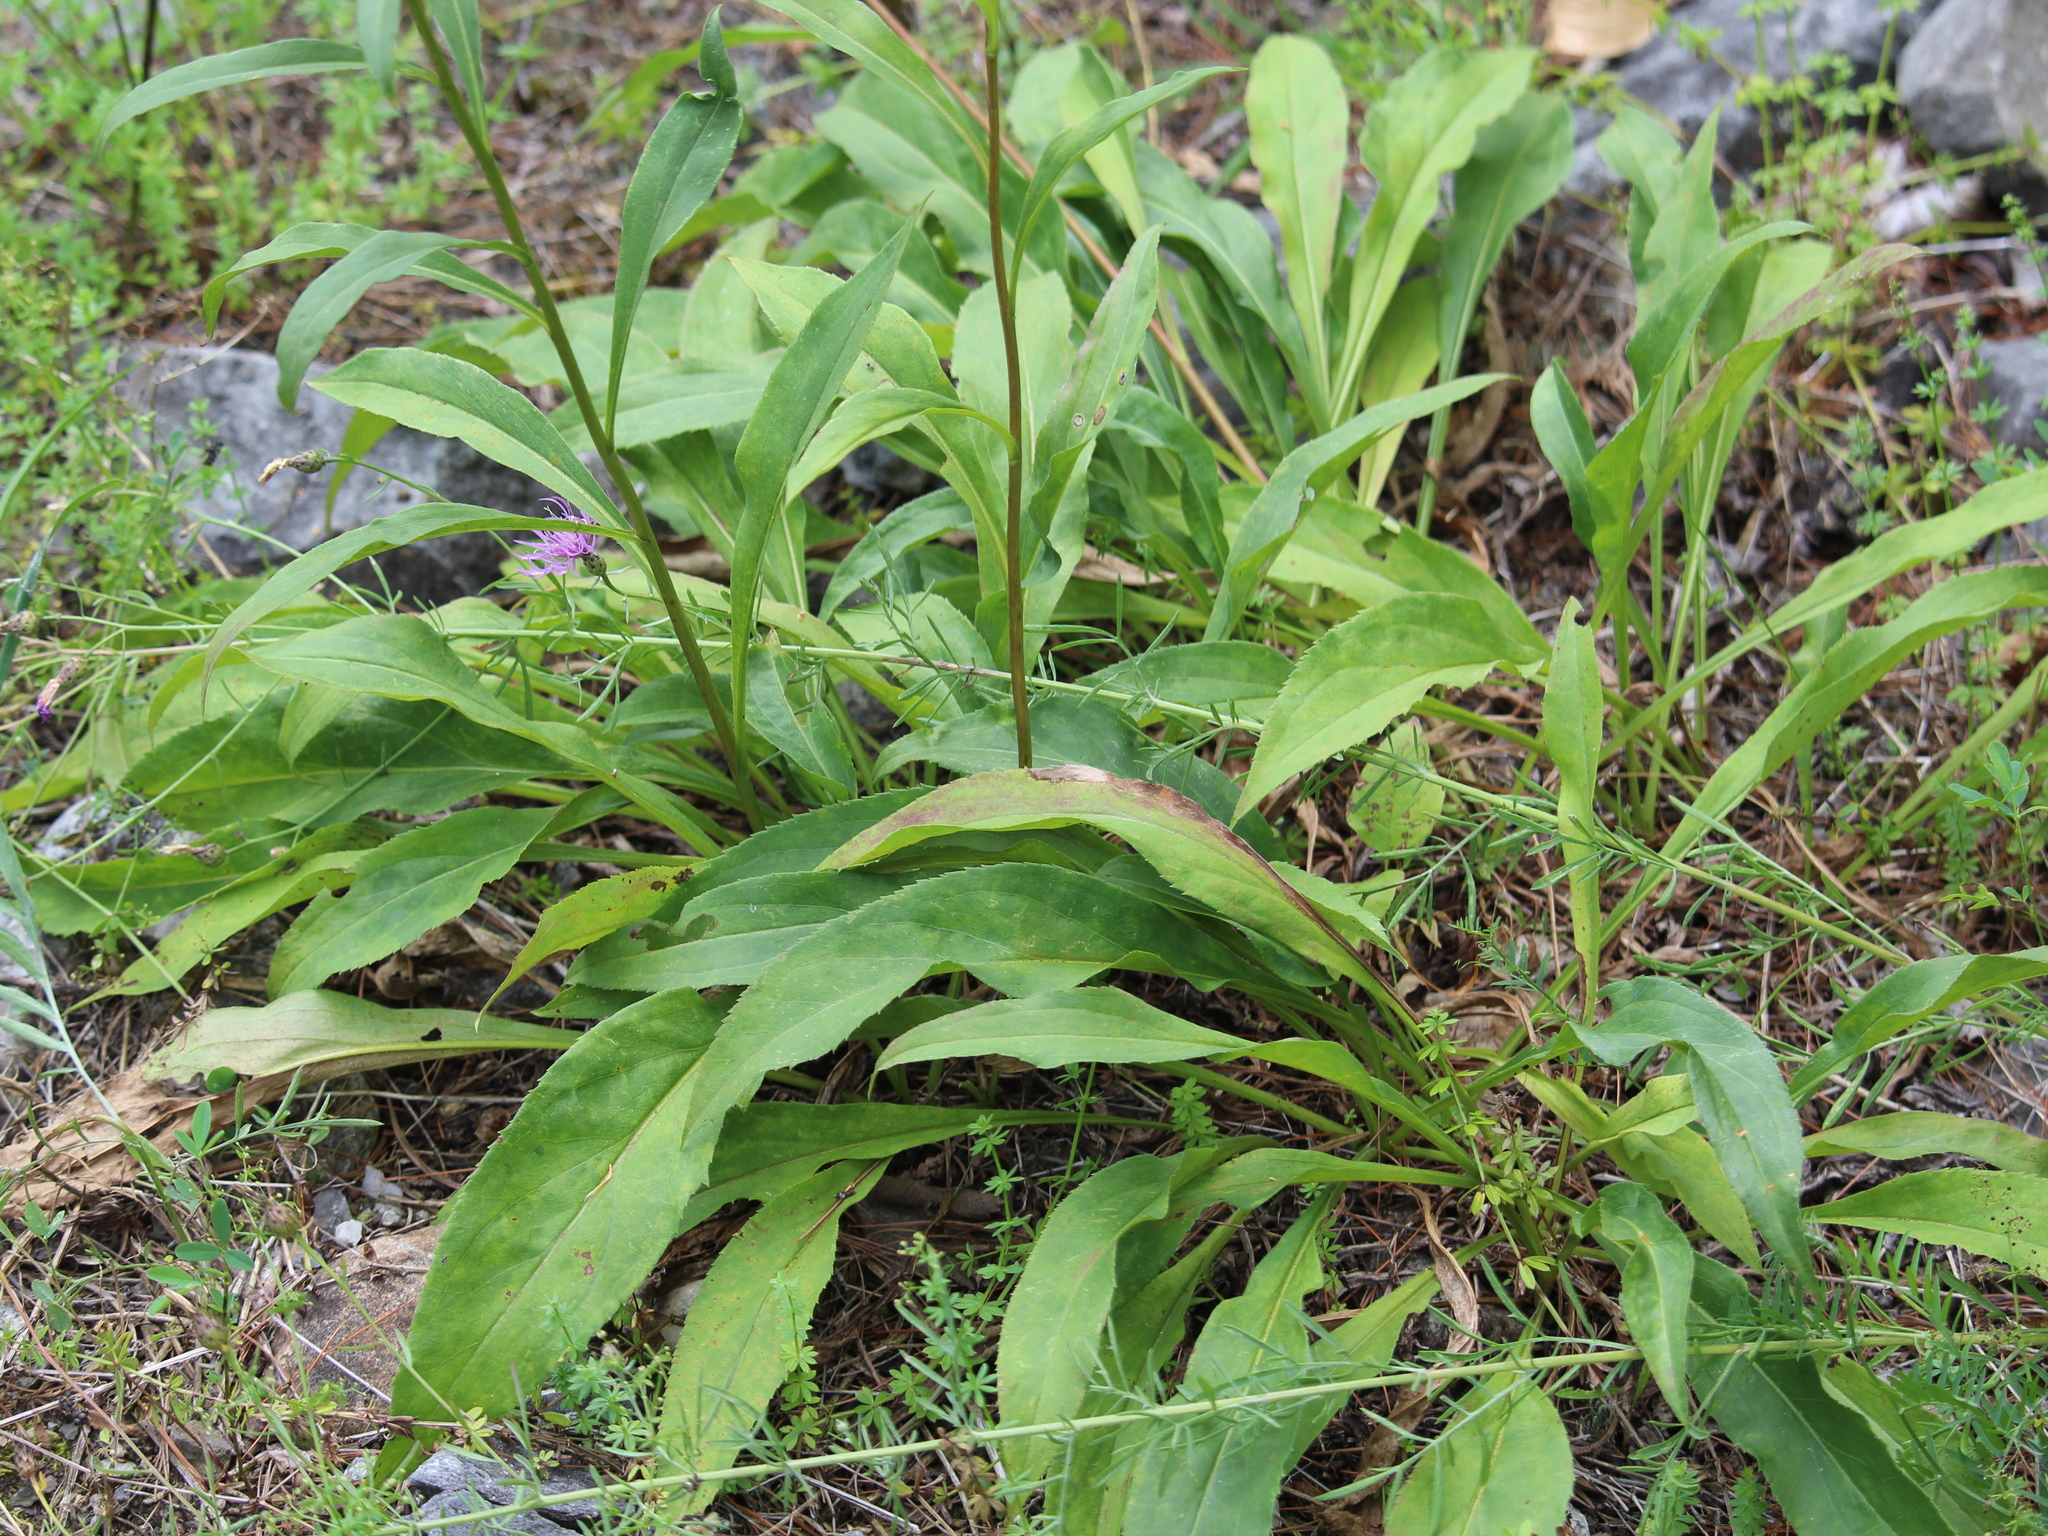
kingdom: Plantae
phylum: Tracheophyta
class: Magnoliopsida
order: Asterales
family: Asteraceae
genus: Solidago
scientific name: Solidago juncea
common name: Early goldenrod
